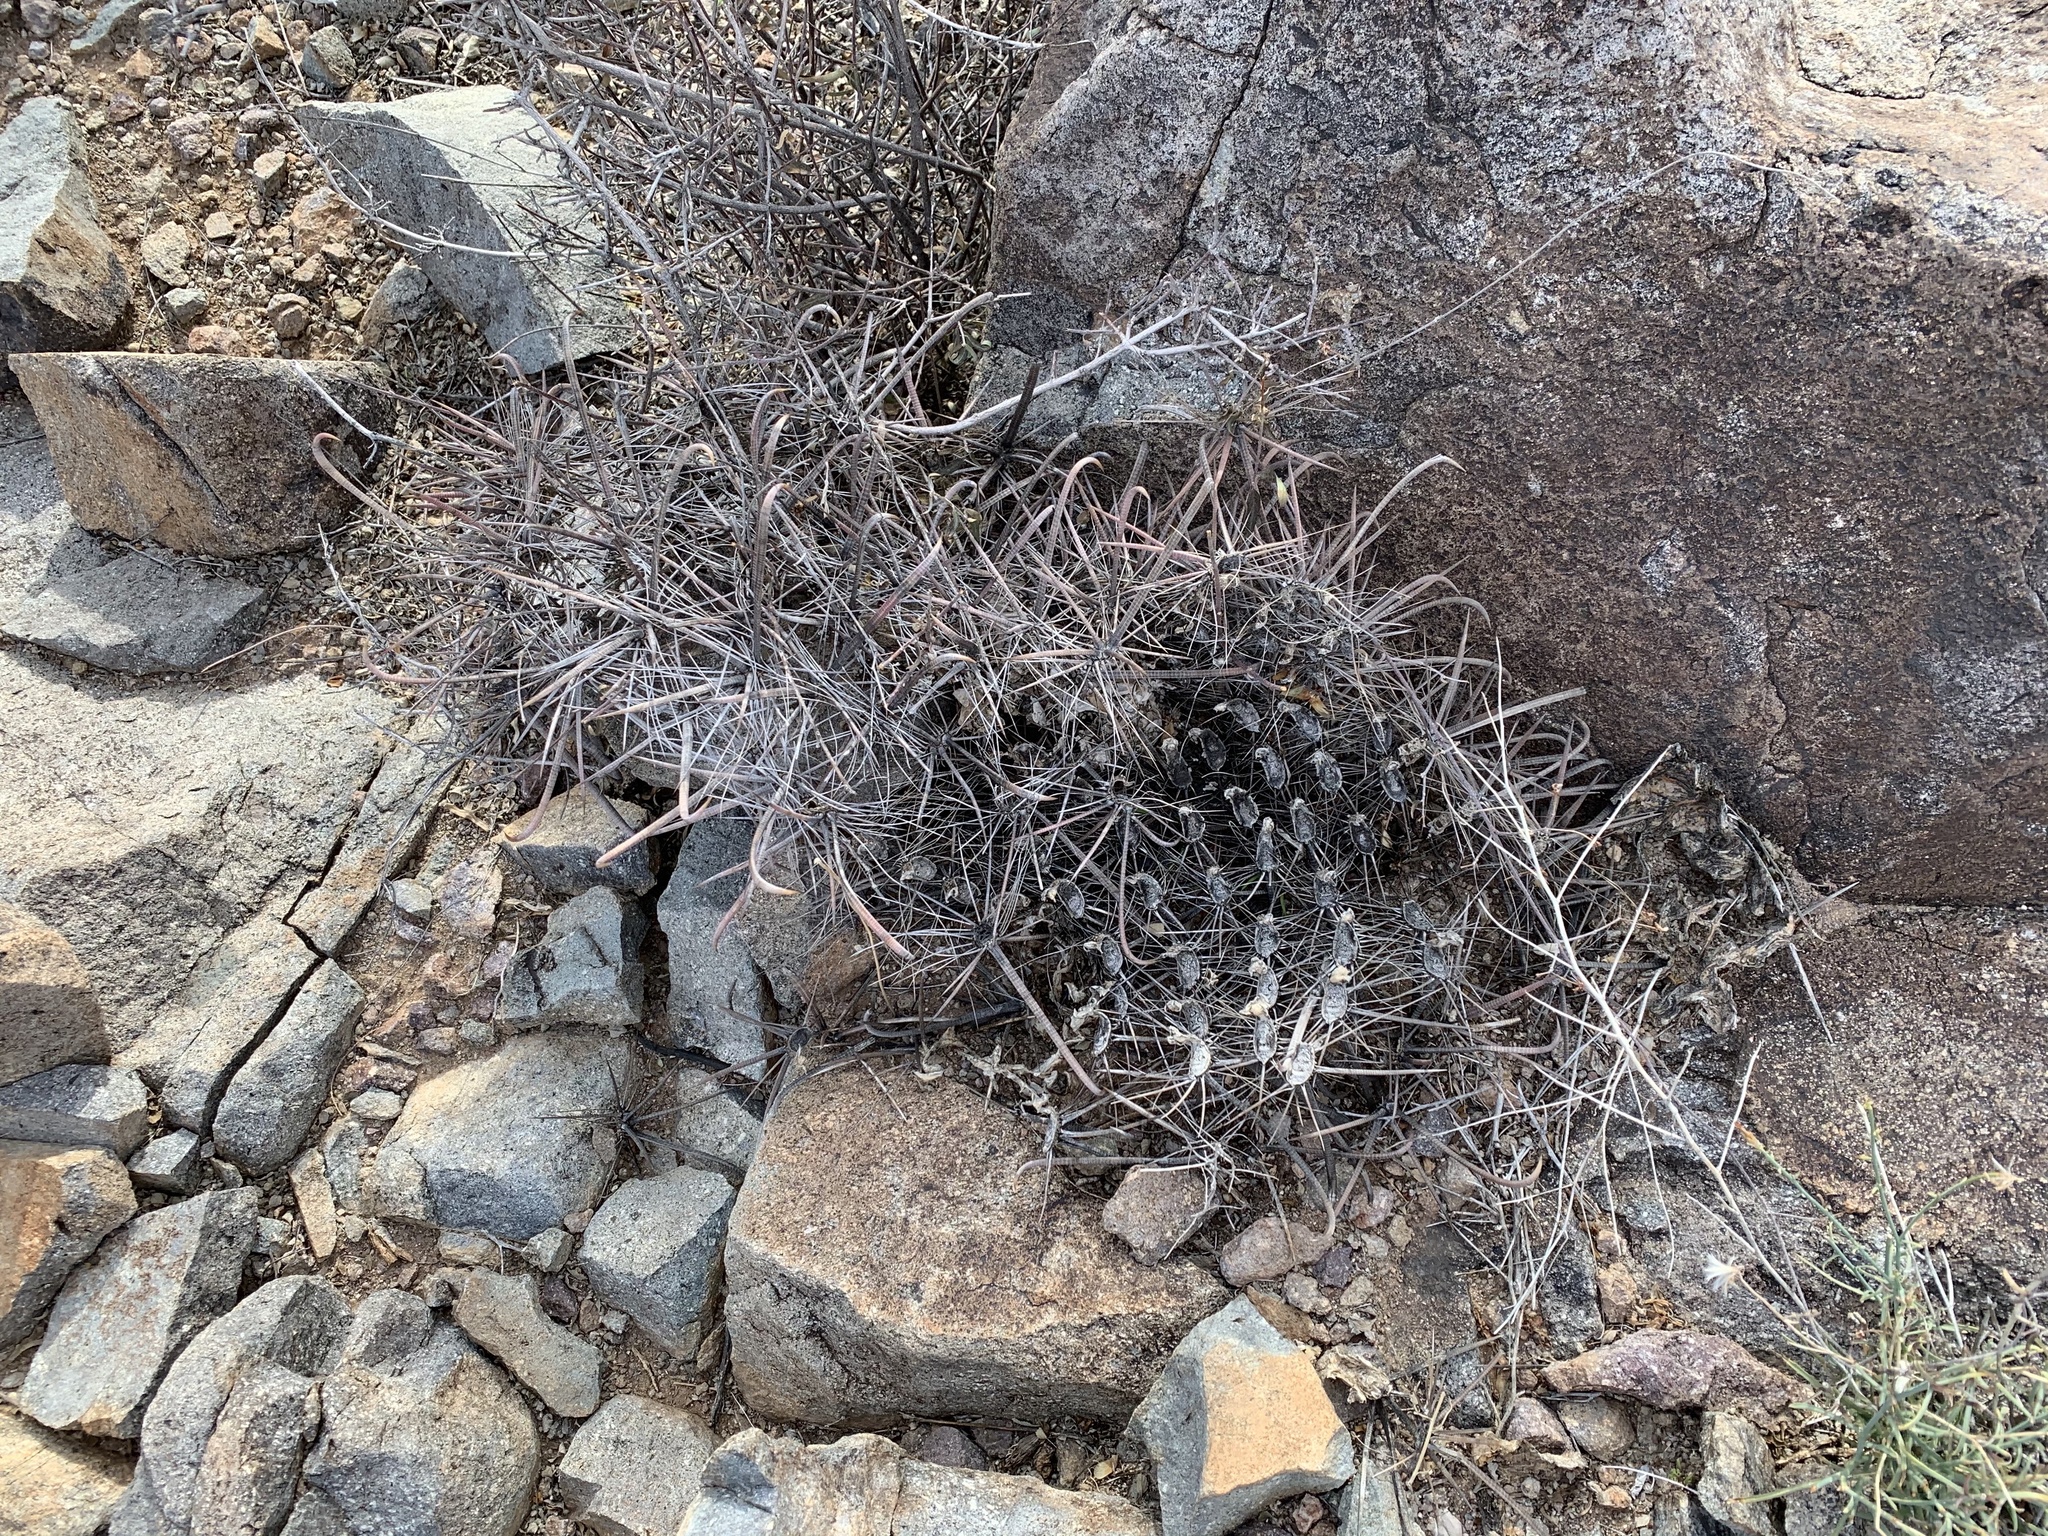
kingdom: Plantae
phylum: Tracheophyta
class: Magnoliopsida
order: Caryophyllales
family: Cactaceae
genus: Ferocactus
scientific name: Ferocactus wislizeni
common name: Candy barrel cactus
